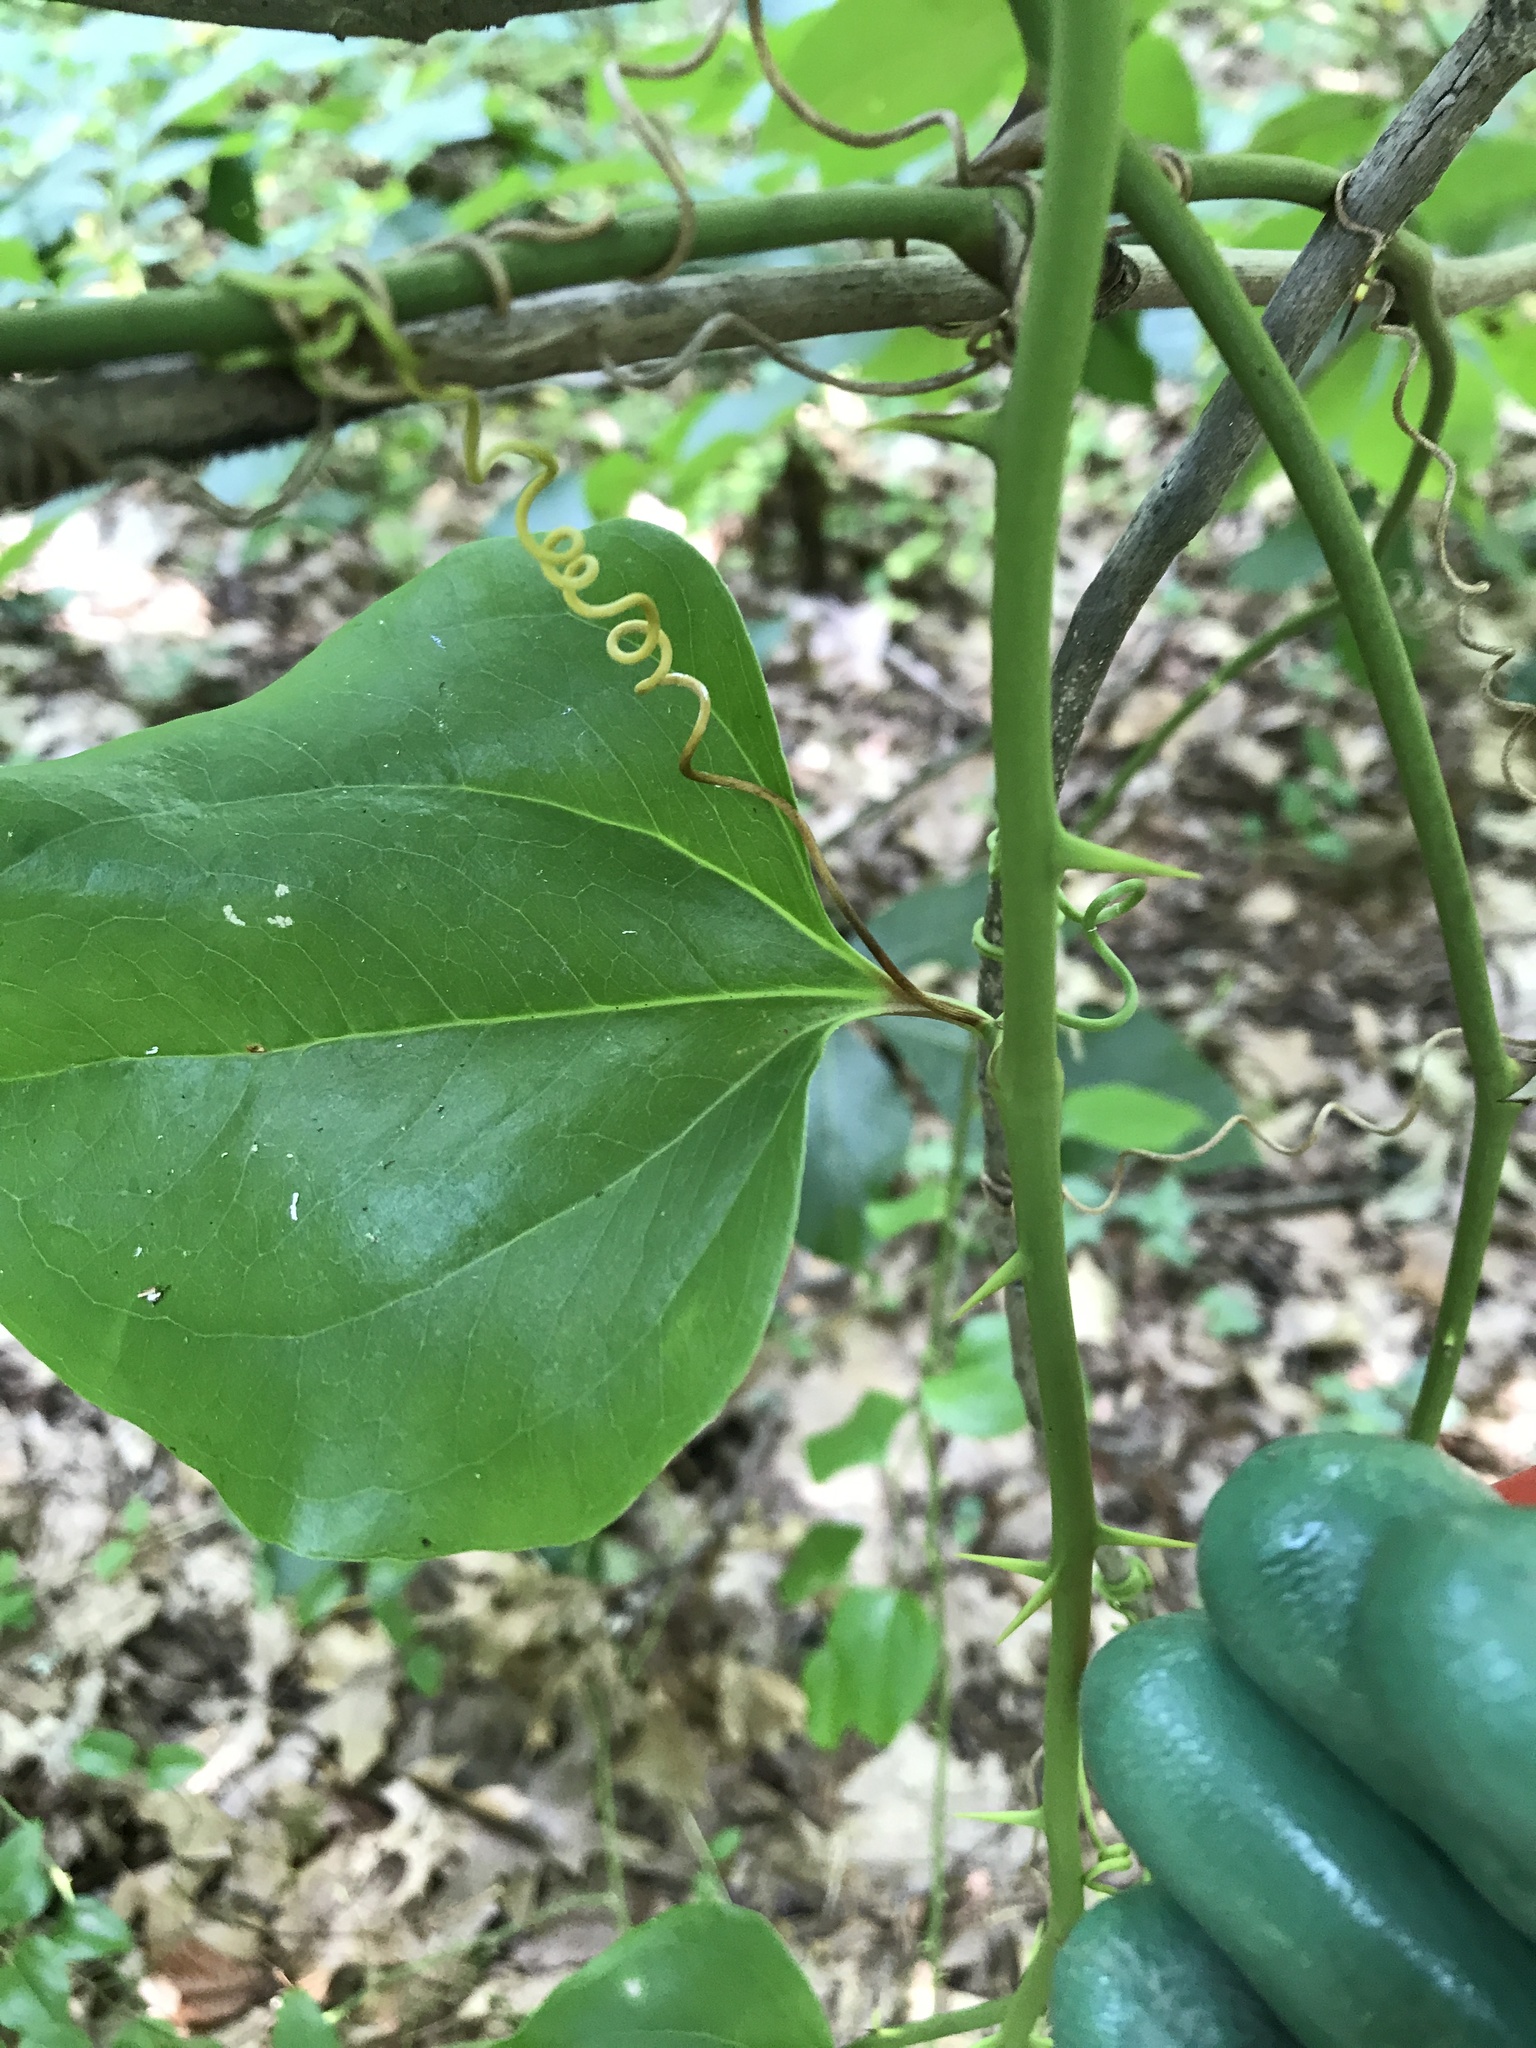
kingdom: Plantae
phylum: Tracheophyta
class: Liliopsida
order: Liliales
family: Smilacaceae
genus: Smilax
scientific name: Smilax rotundifolia
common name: Bullbriar
